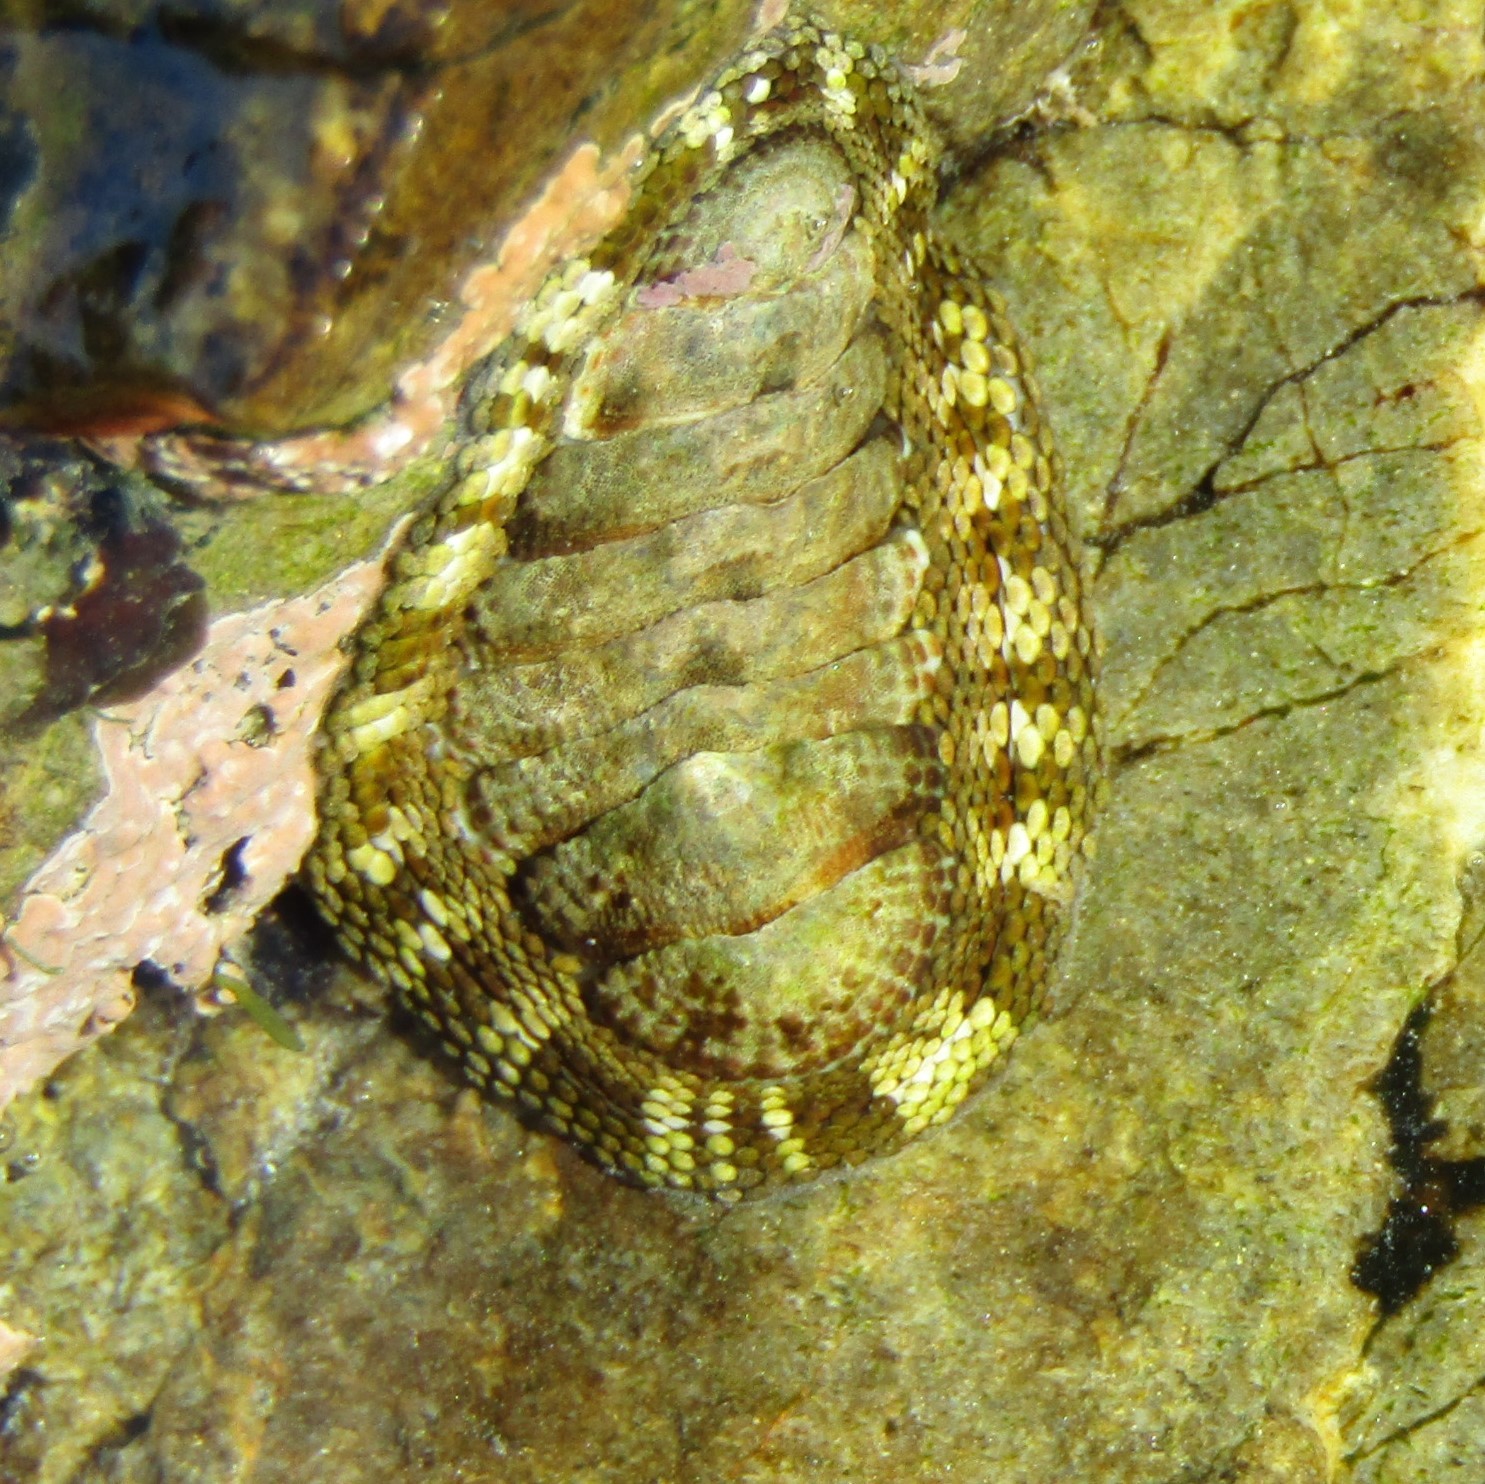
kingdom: Animalia
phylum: Mollusca
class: Polyplacophora
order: Chitonida
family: Chitonidae
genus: Sypharochiton
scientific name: Sypharochiton pelliserpentis
